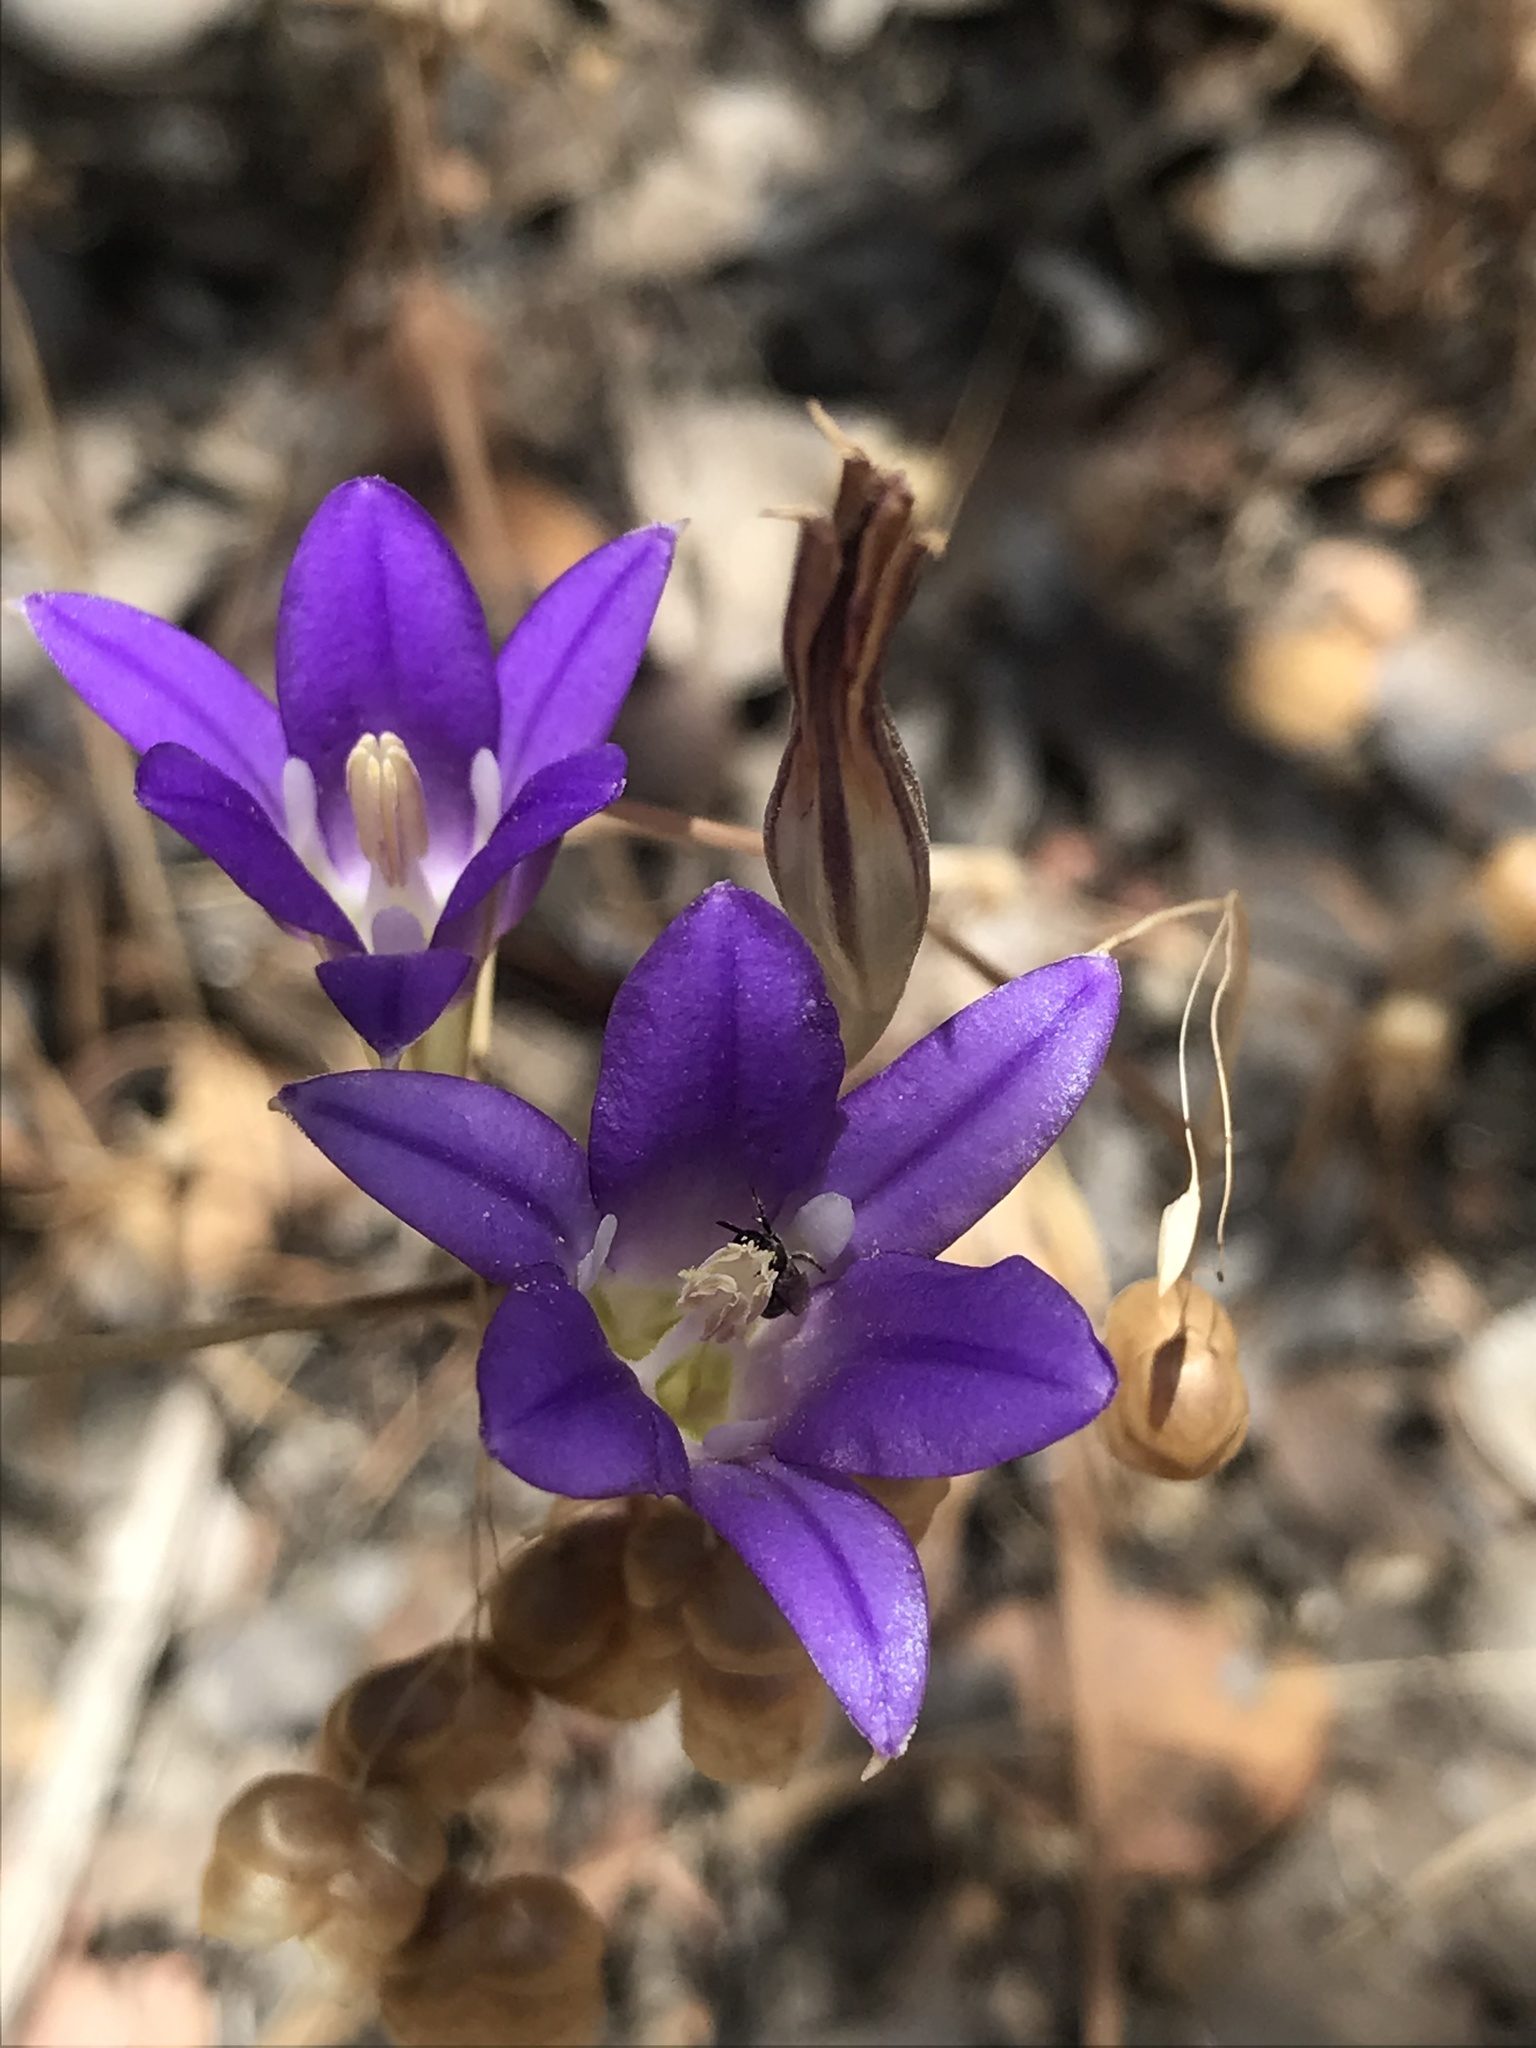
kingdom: Plantae
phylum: Tracheophyta
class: Liliopsida
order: Asparagales
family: Asparagaceae
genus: Brodiaea
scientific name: Brodiaea elegans
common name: Elegant cluster-lily
